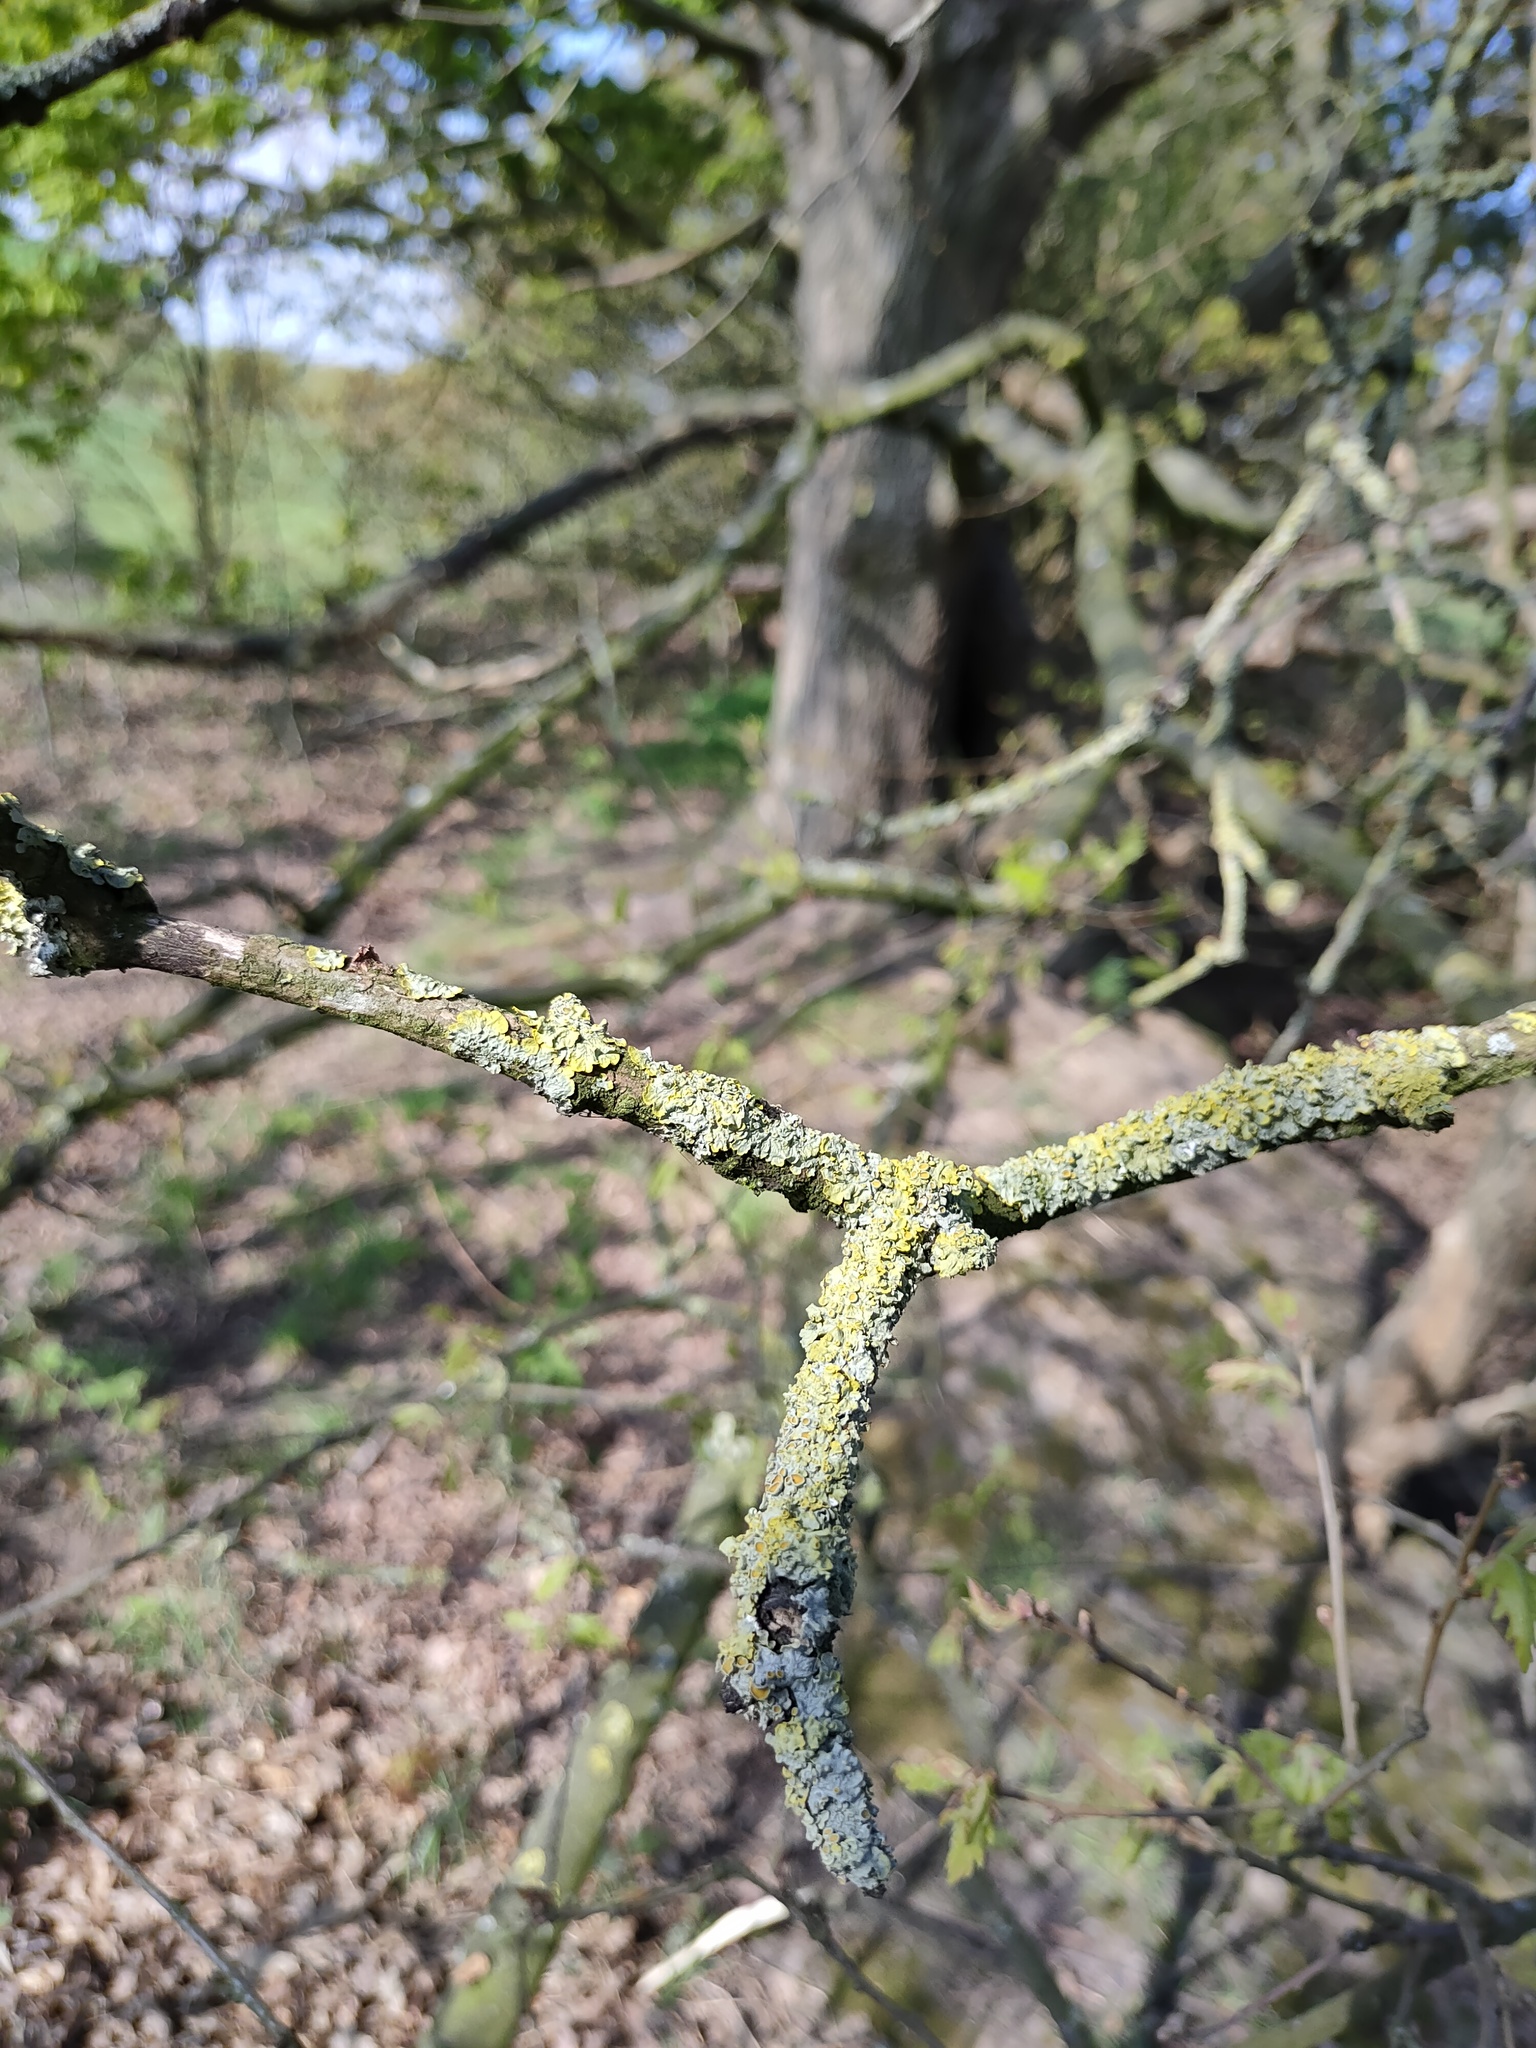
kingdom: Fungi
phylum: Ascomycota
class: Lecanoromycetes
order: Teloschistales
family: Teloschistaceae
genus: Xanthoria
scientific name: Xanthoria parietina
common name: Common orange lichen
